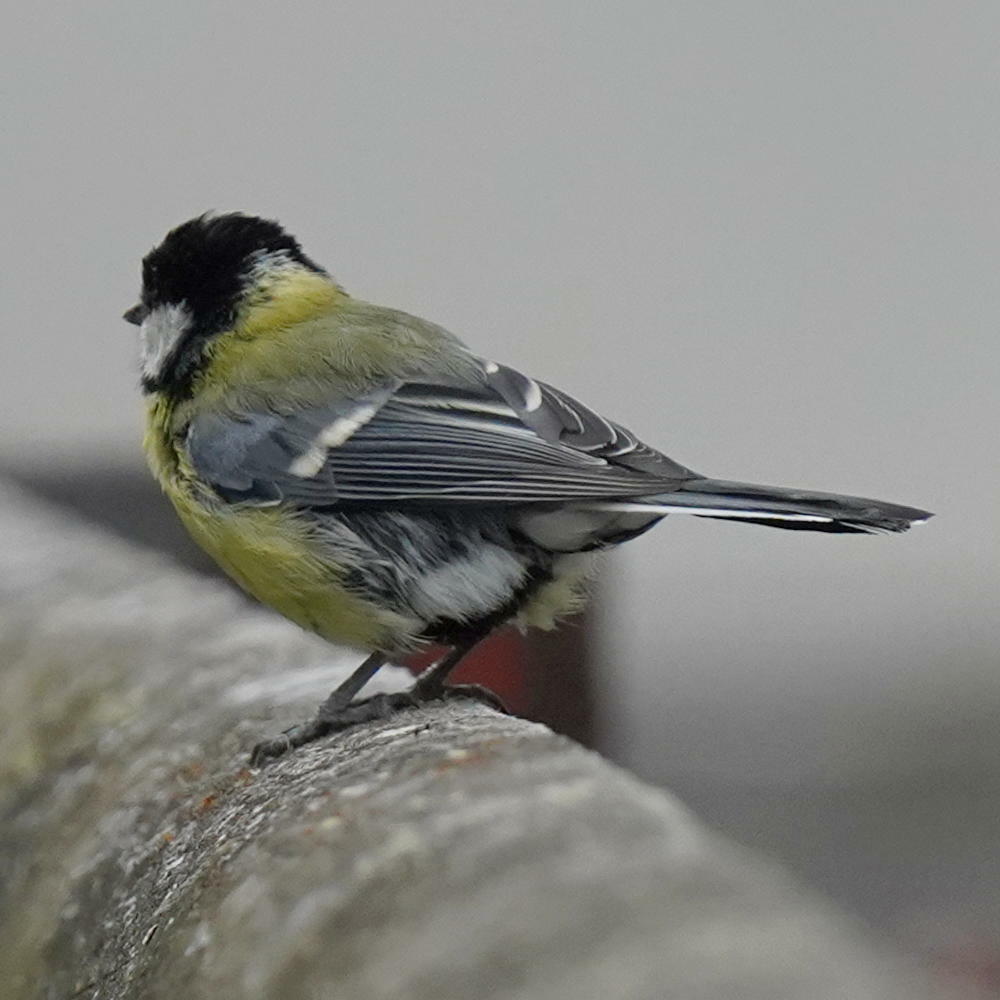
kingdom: Animalia
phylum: Chordata
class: Aves
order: Passeriformes
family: Paridae
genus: Parus
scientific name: Parus major
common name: Great tit
